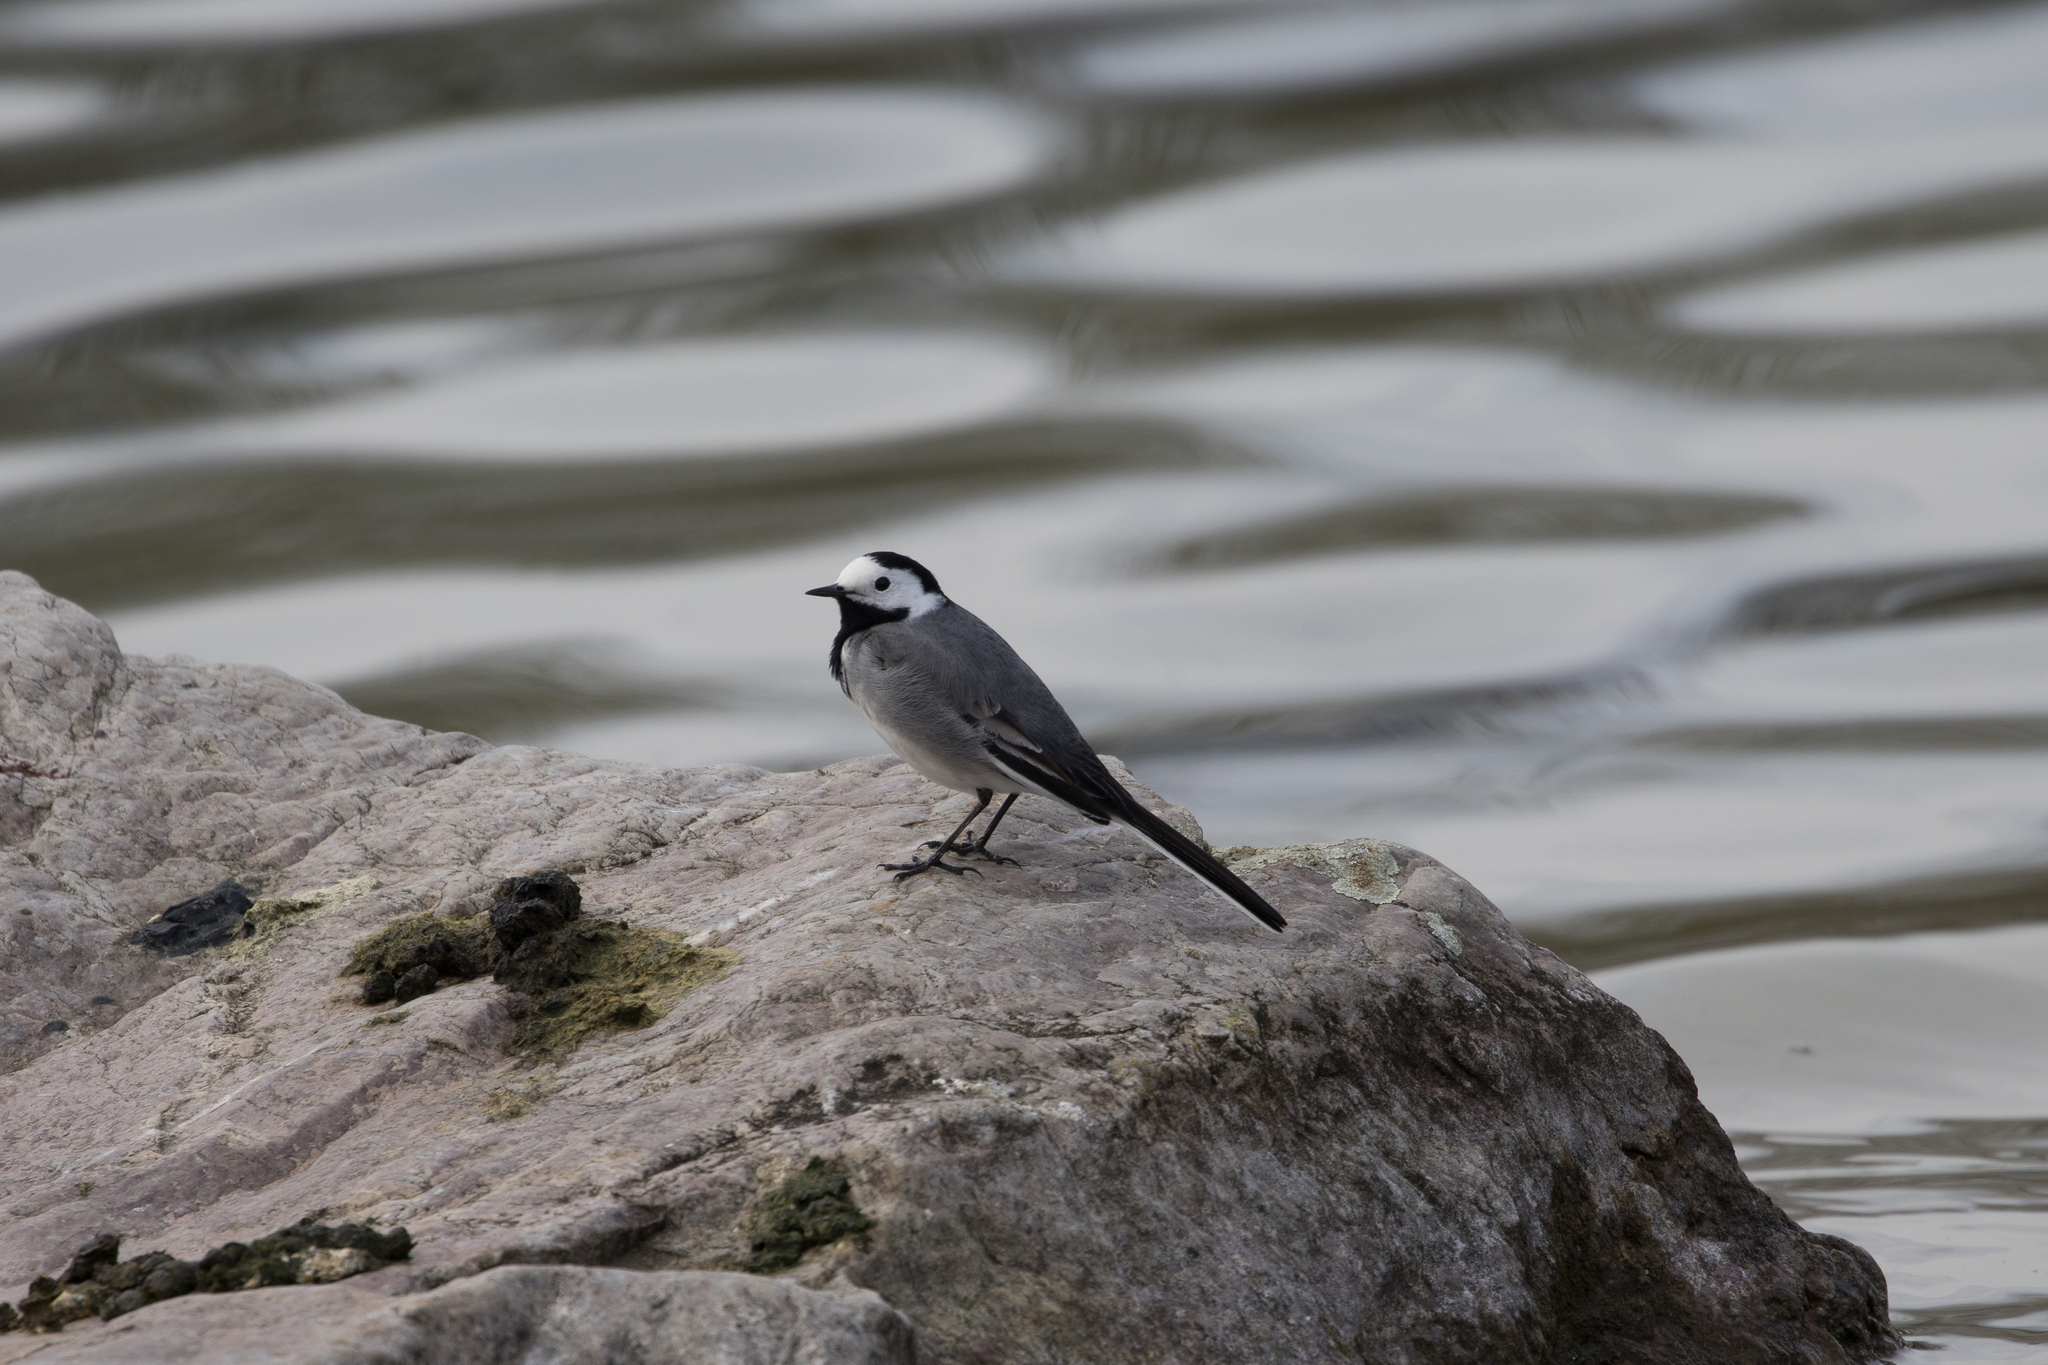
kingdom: Animalia
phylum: Chordata
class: Aves
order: Passeriformes
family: Motacillidae
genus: Motacilla
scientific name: Motacilla alba
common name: White wagtail
